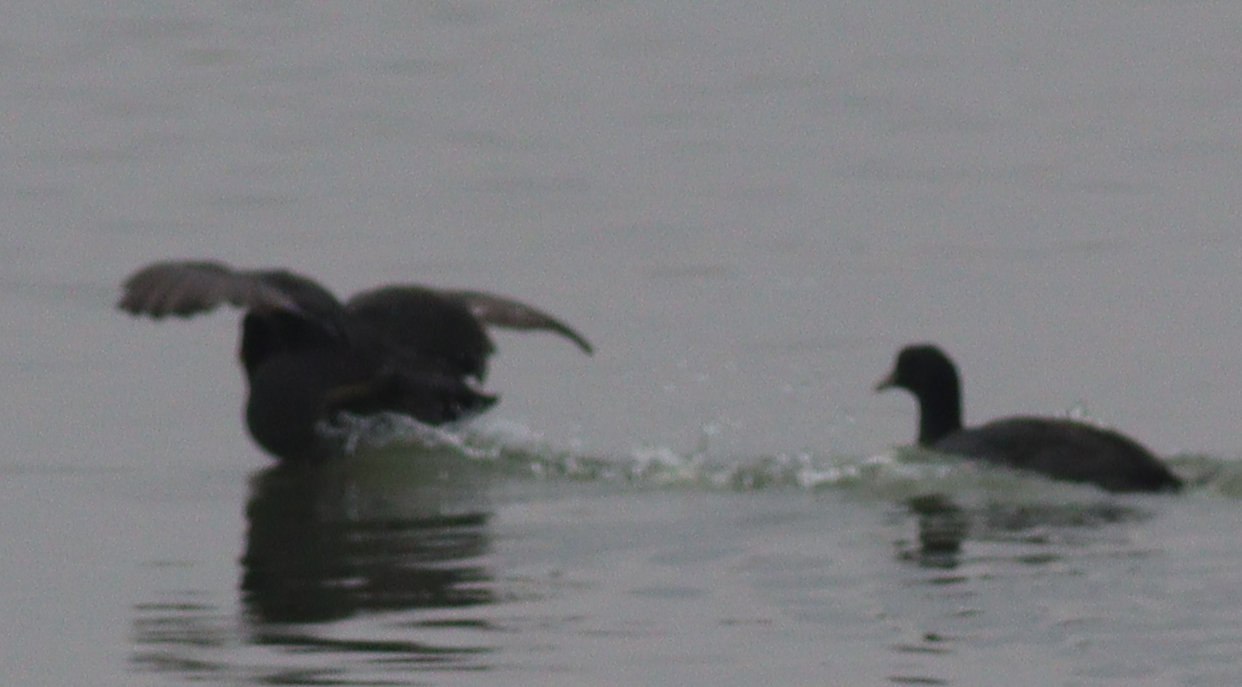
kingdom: Animalia
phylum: Chordata
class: Aves
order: Gruiformes
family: Rallidae
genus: Fulica
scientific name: Fulica atra
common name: Eurasian coot
